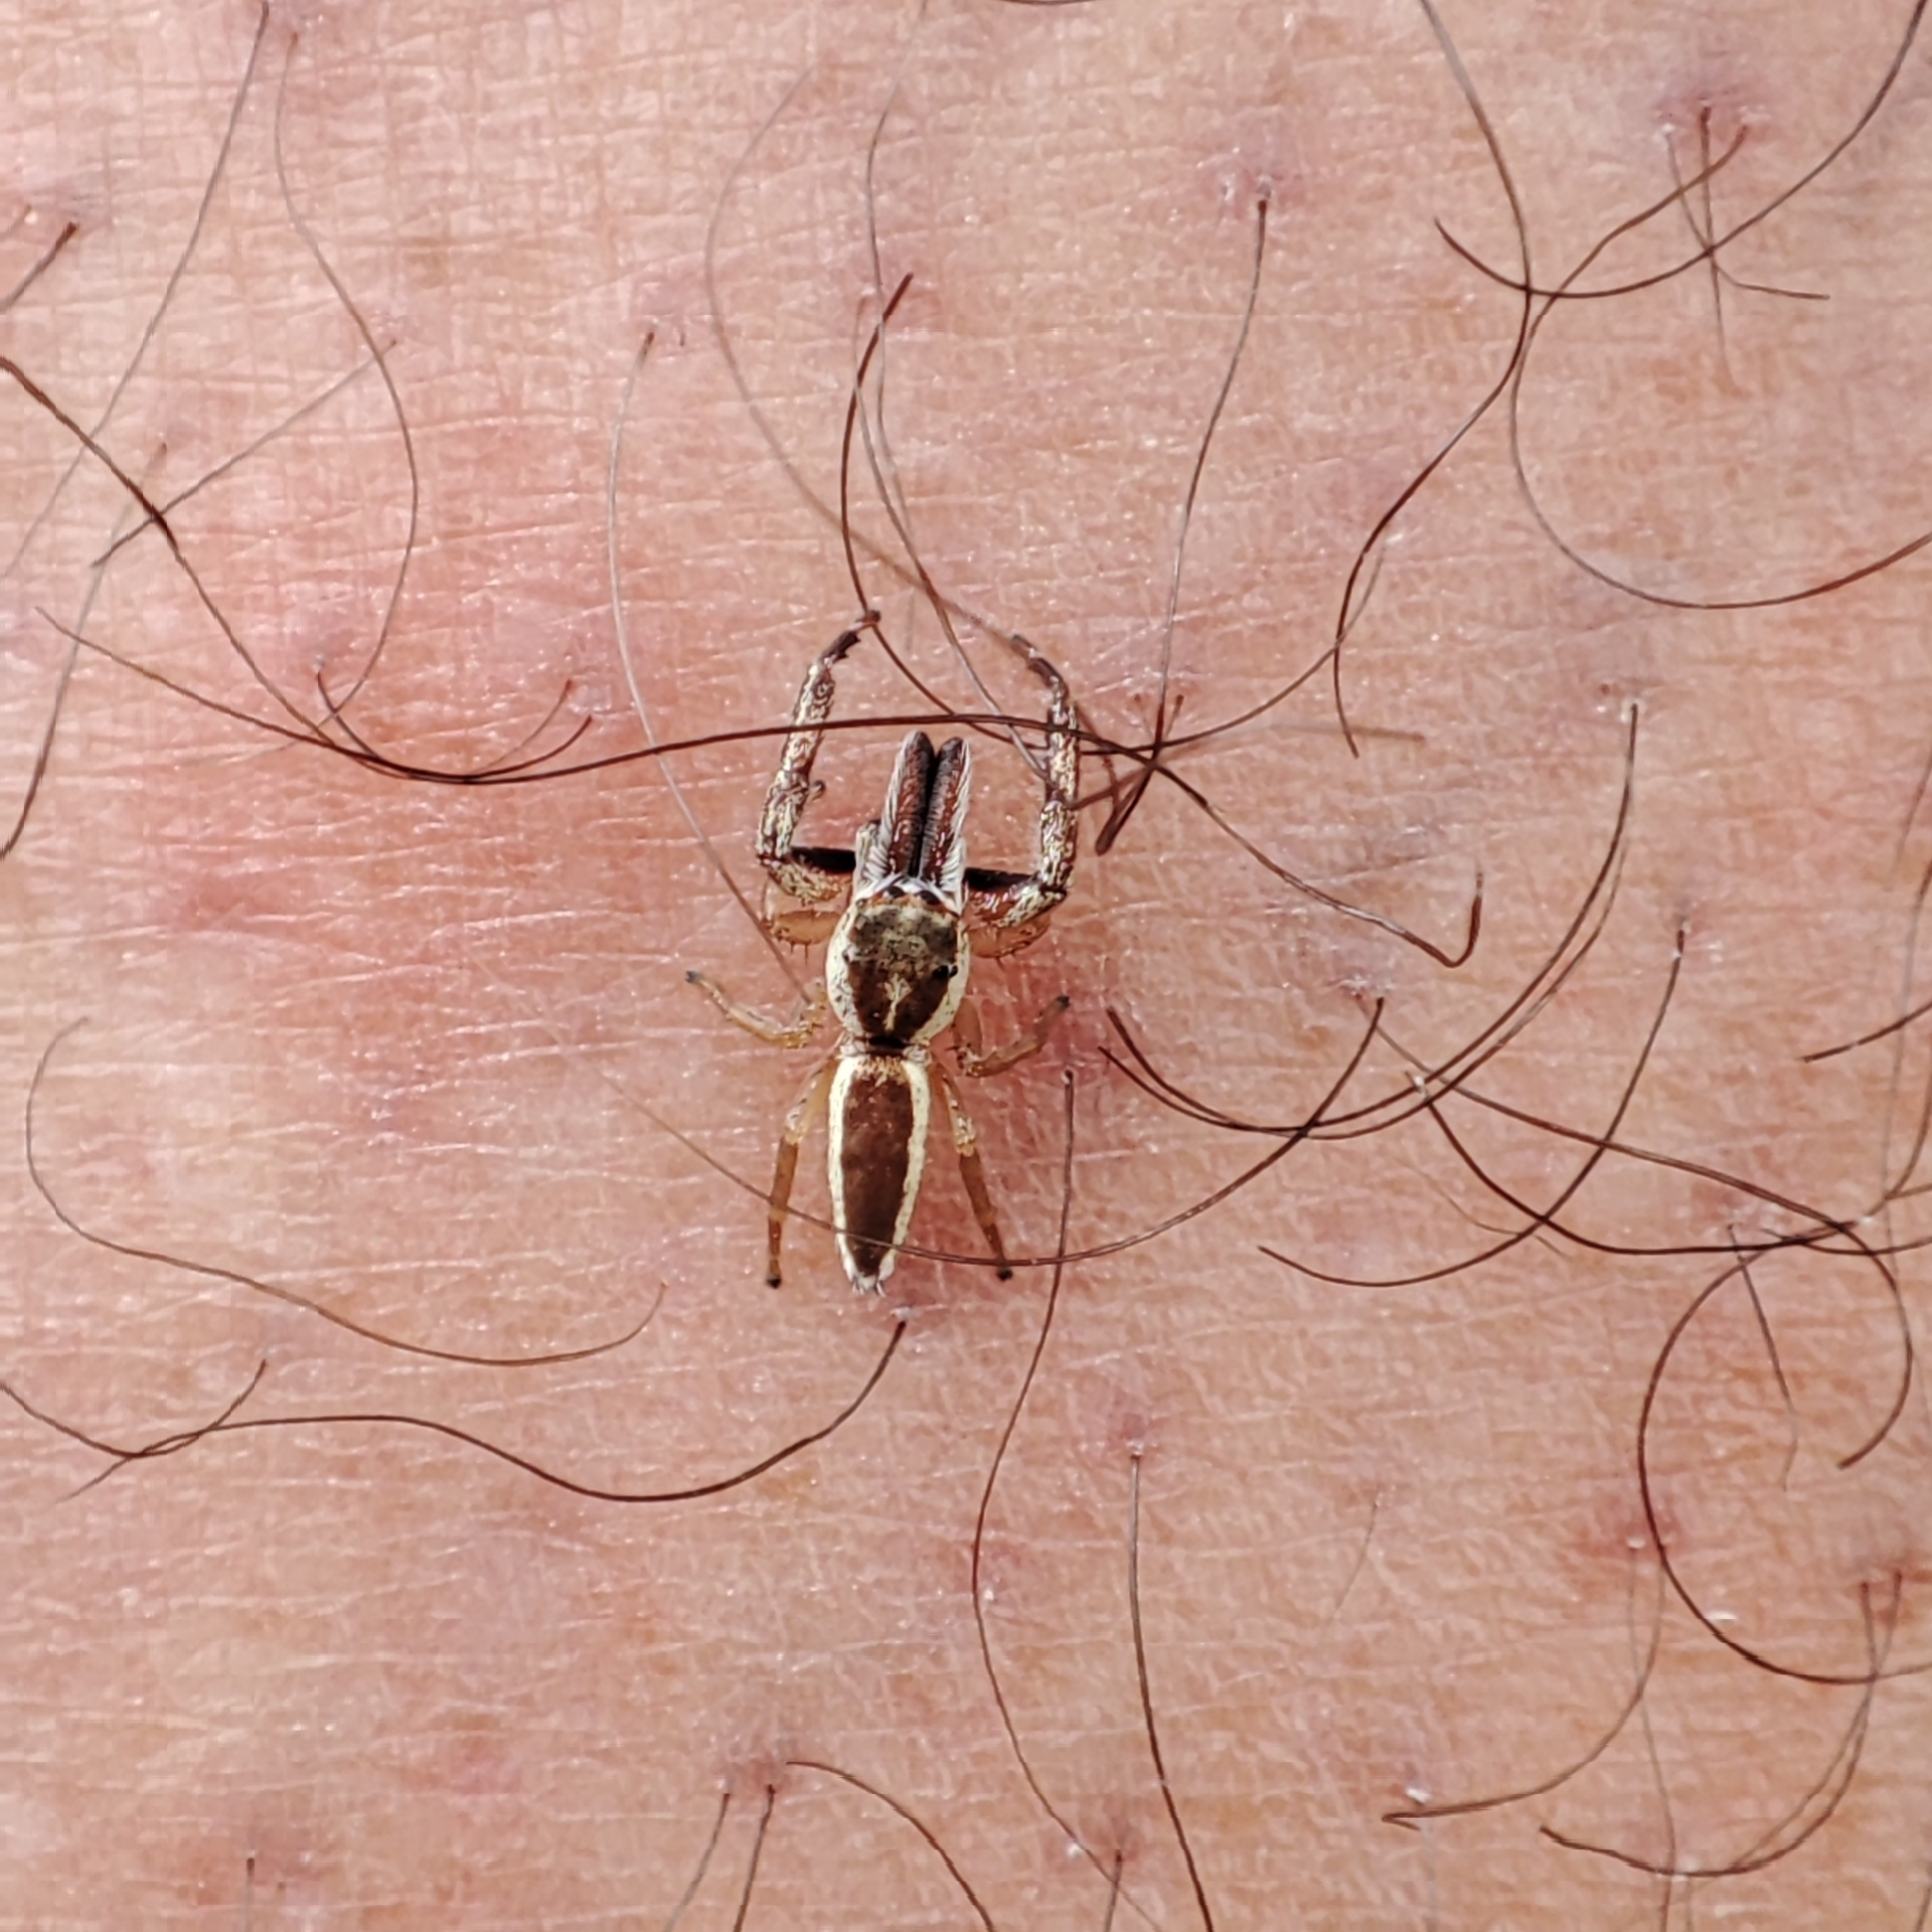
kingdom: Animalia
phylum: Arthropoda
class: Arachnida
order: Araneae
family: Salticidae
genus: Hentzia
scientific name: Hentzia palmarum
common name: Common hentz jumping spider
